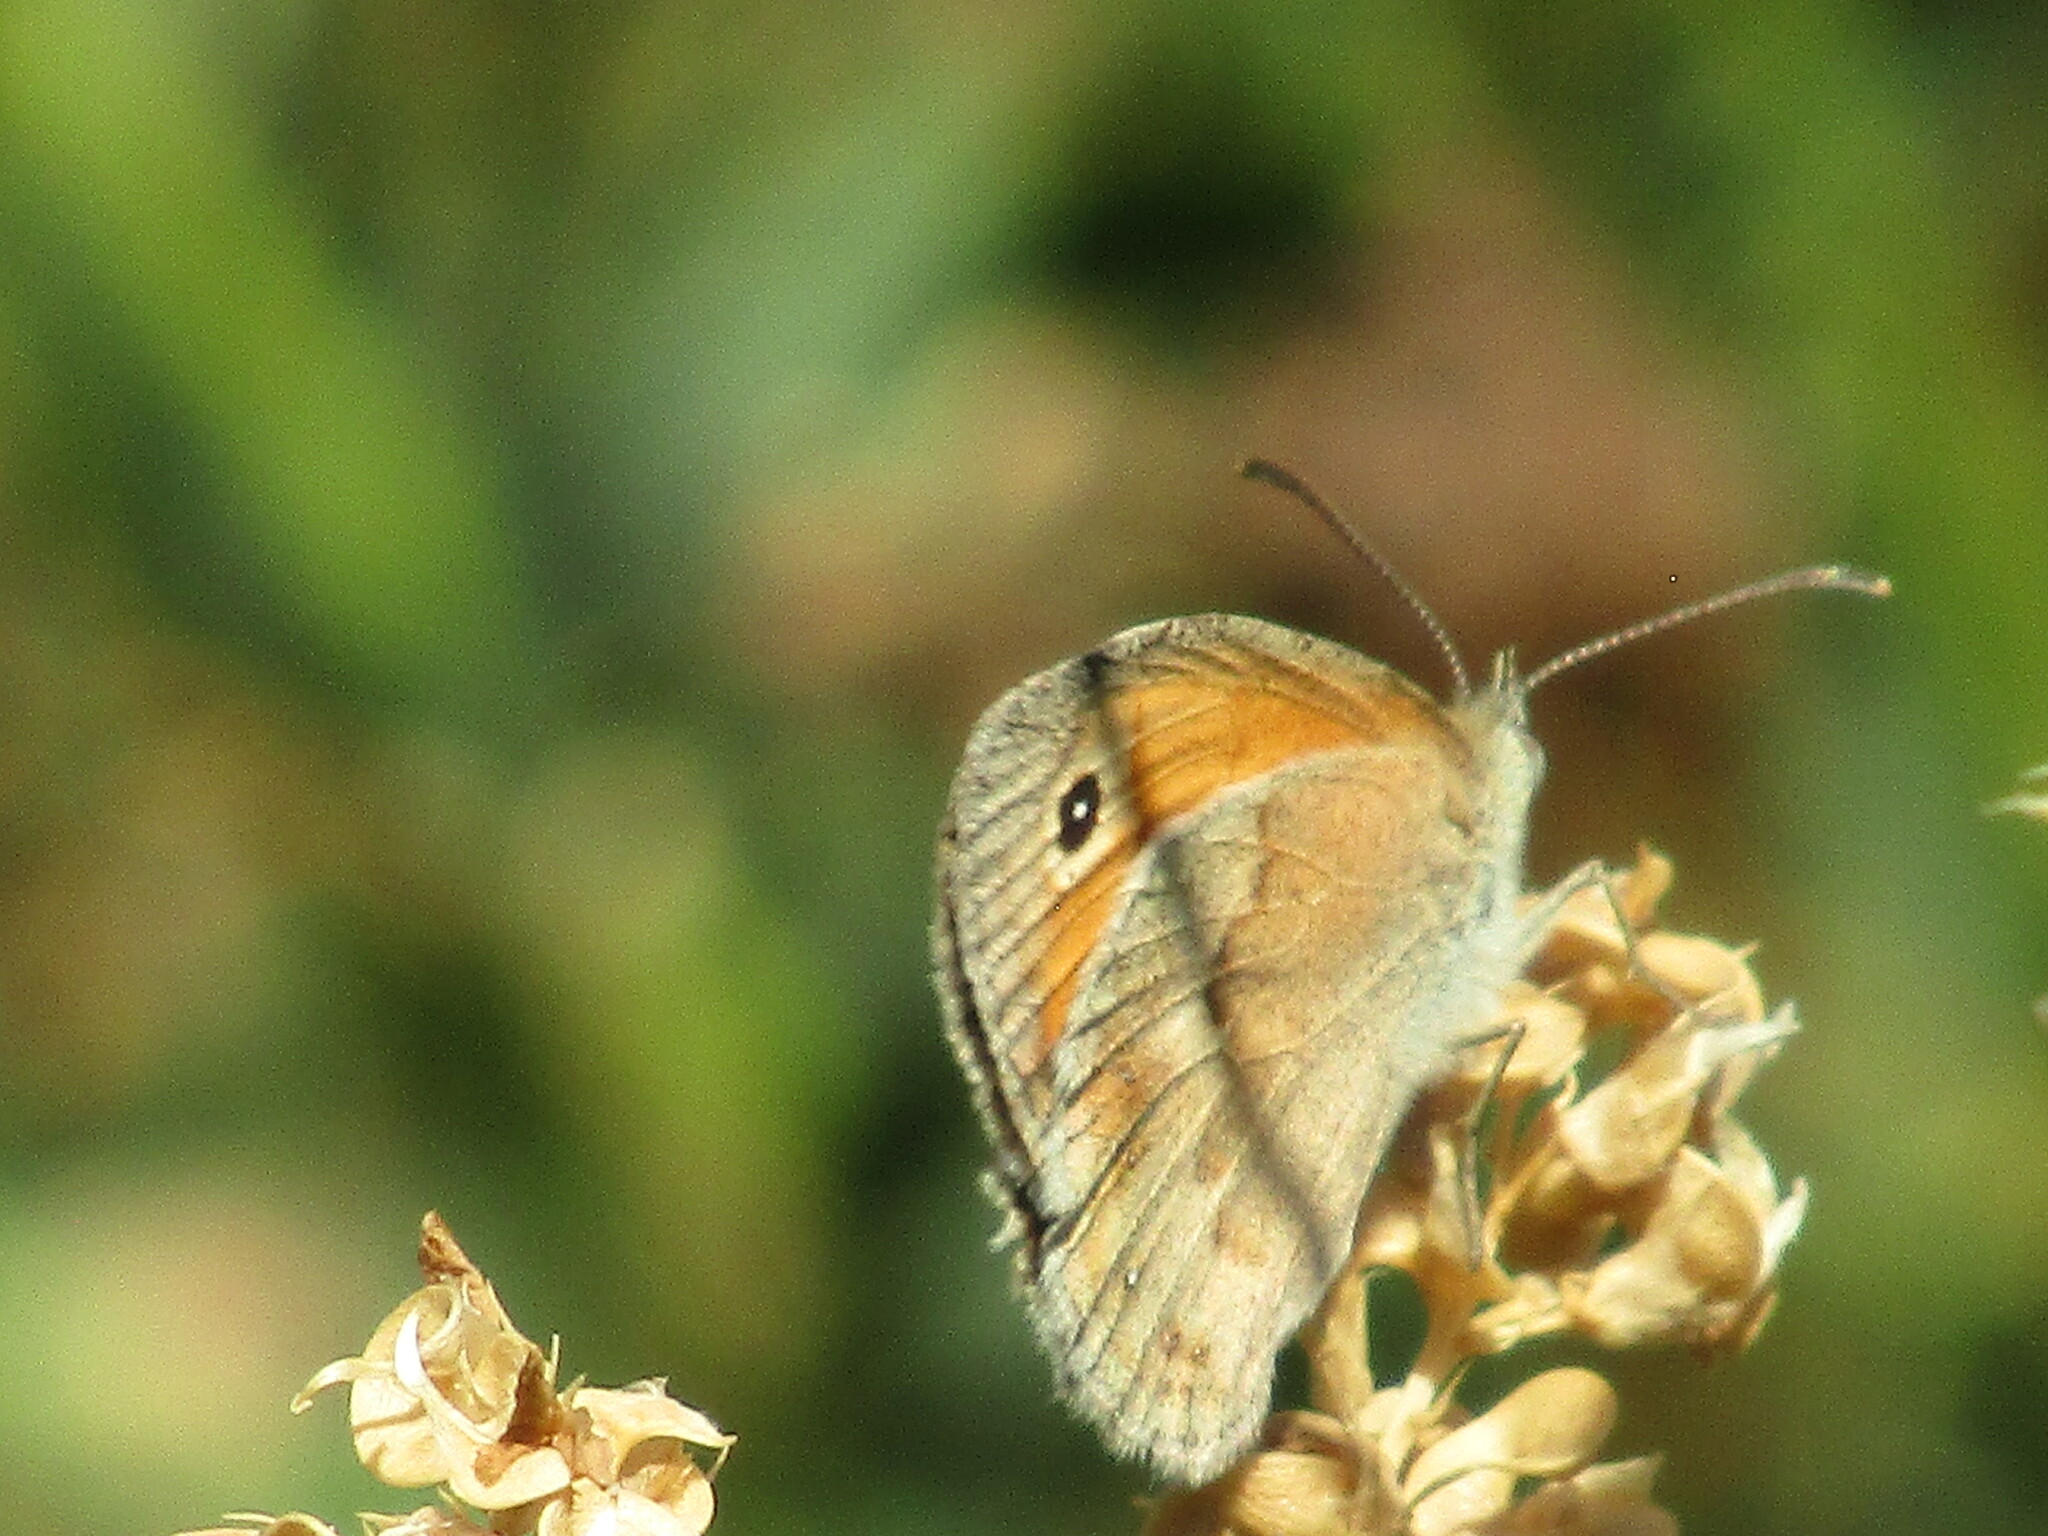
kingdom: Animalia
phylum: Arthropoda
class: Insecta
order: Lepidoptera
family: Nymphalidae
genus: Coenonympha
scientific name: Coenonympha pamphilus
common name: Small heath
